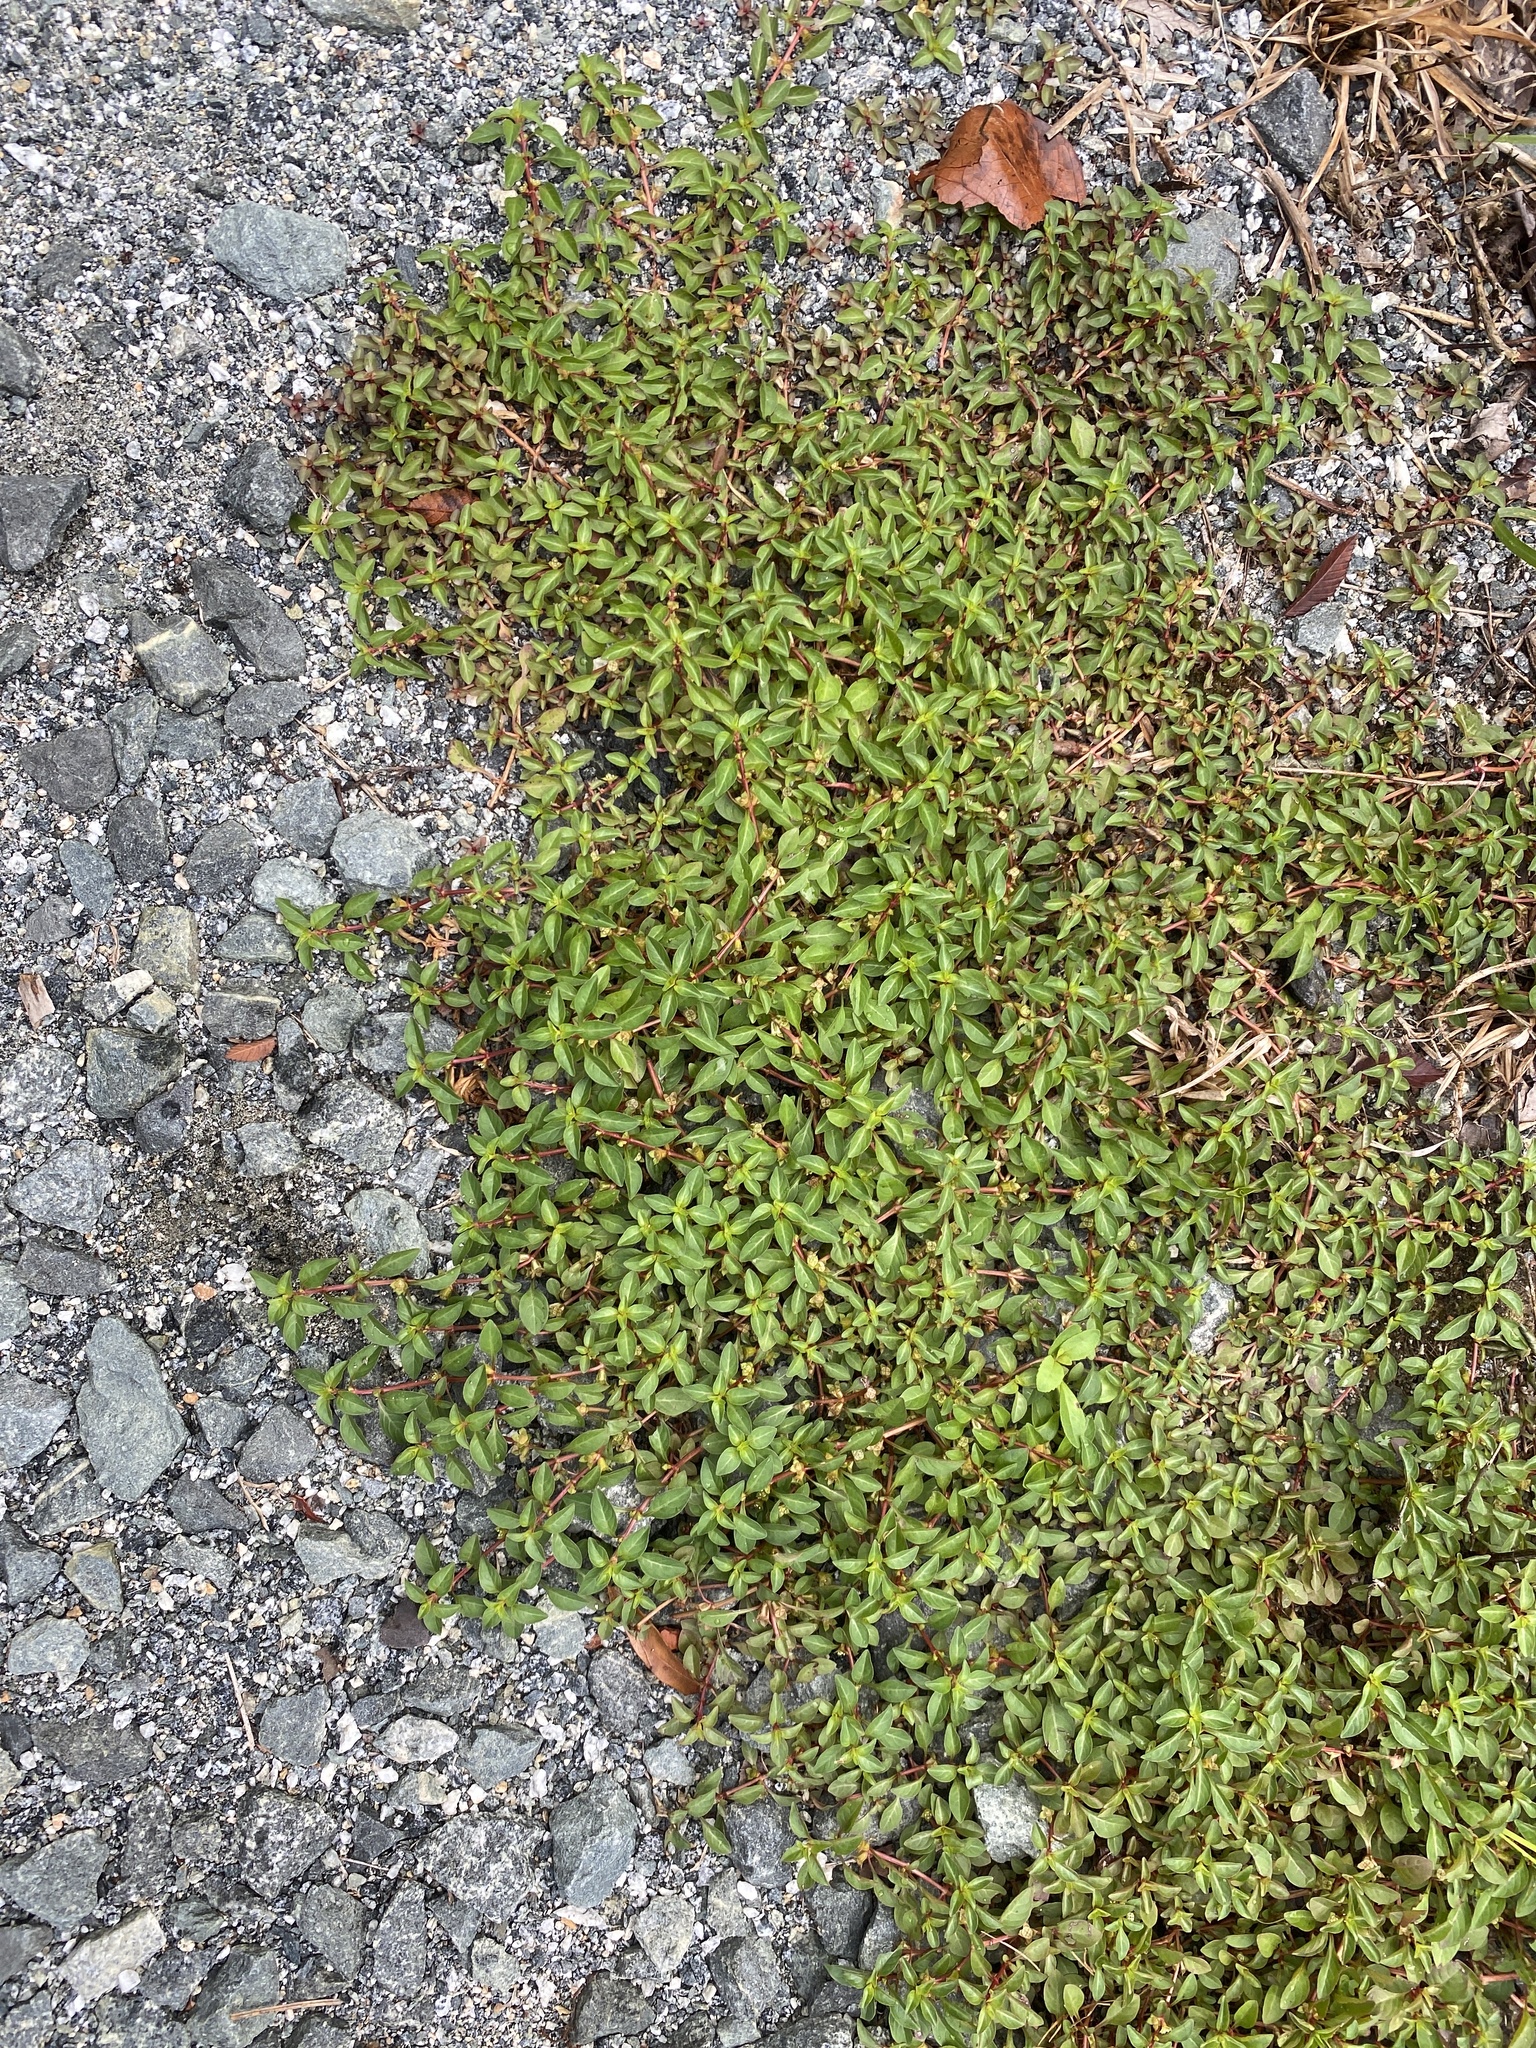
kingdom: Plantae
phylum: Tracheophyta
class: Magnoliopsida
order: Myrtales
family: Onagraceae
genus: Ludwigia
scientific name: Ludwigia palustris
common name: Hampshire-purslane
